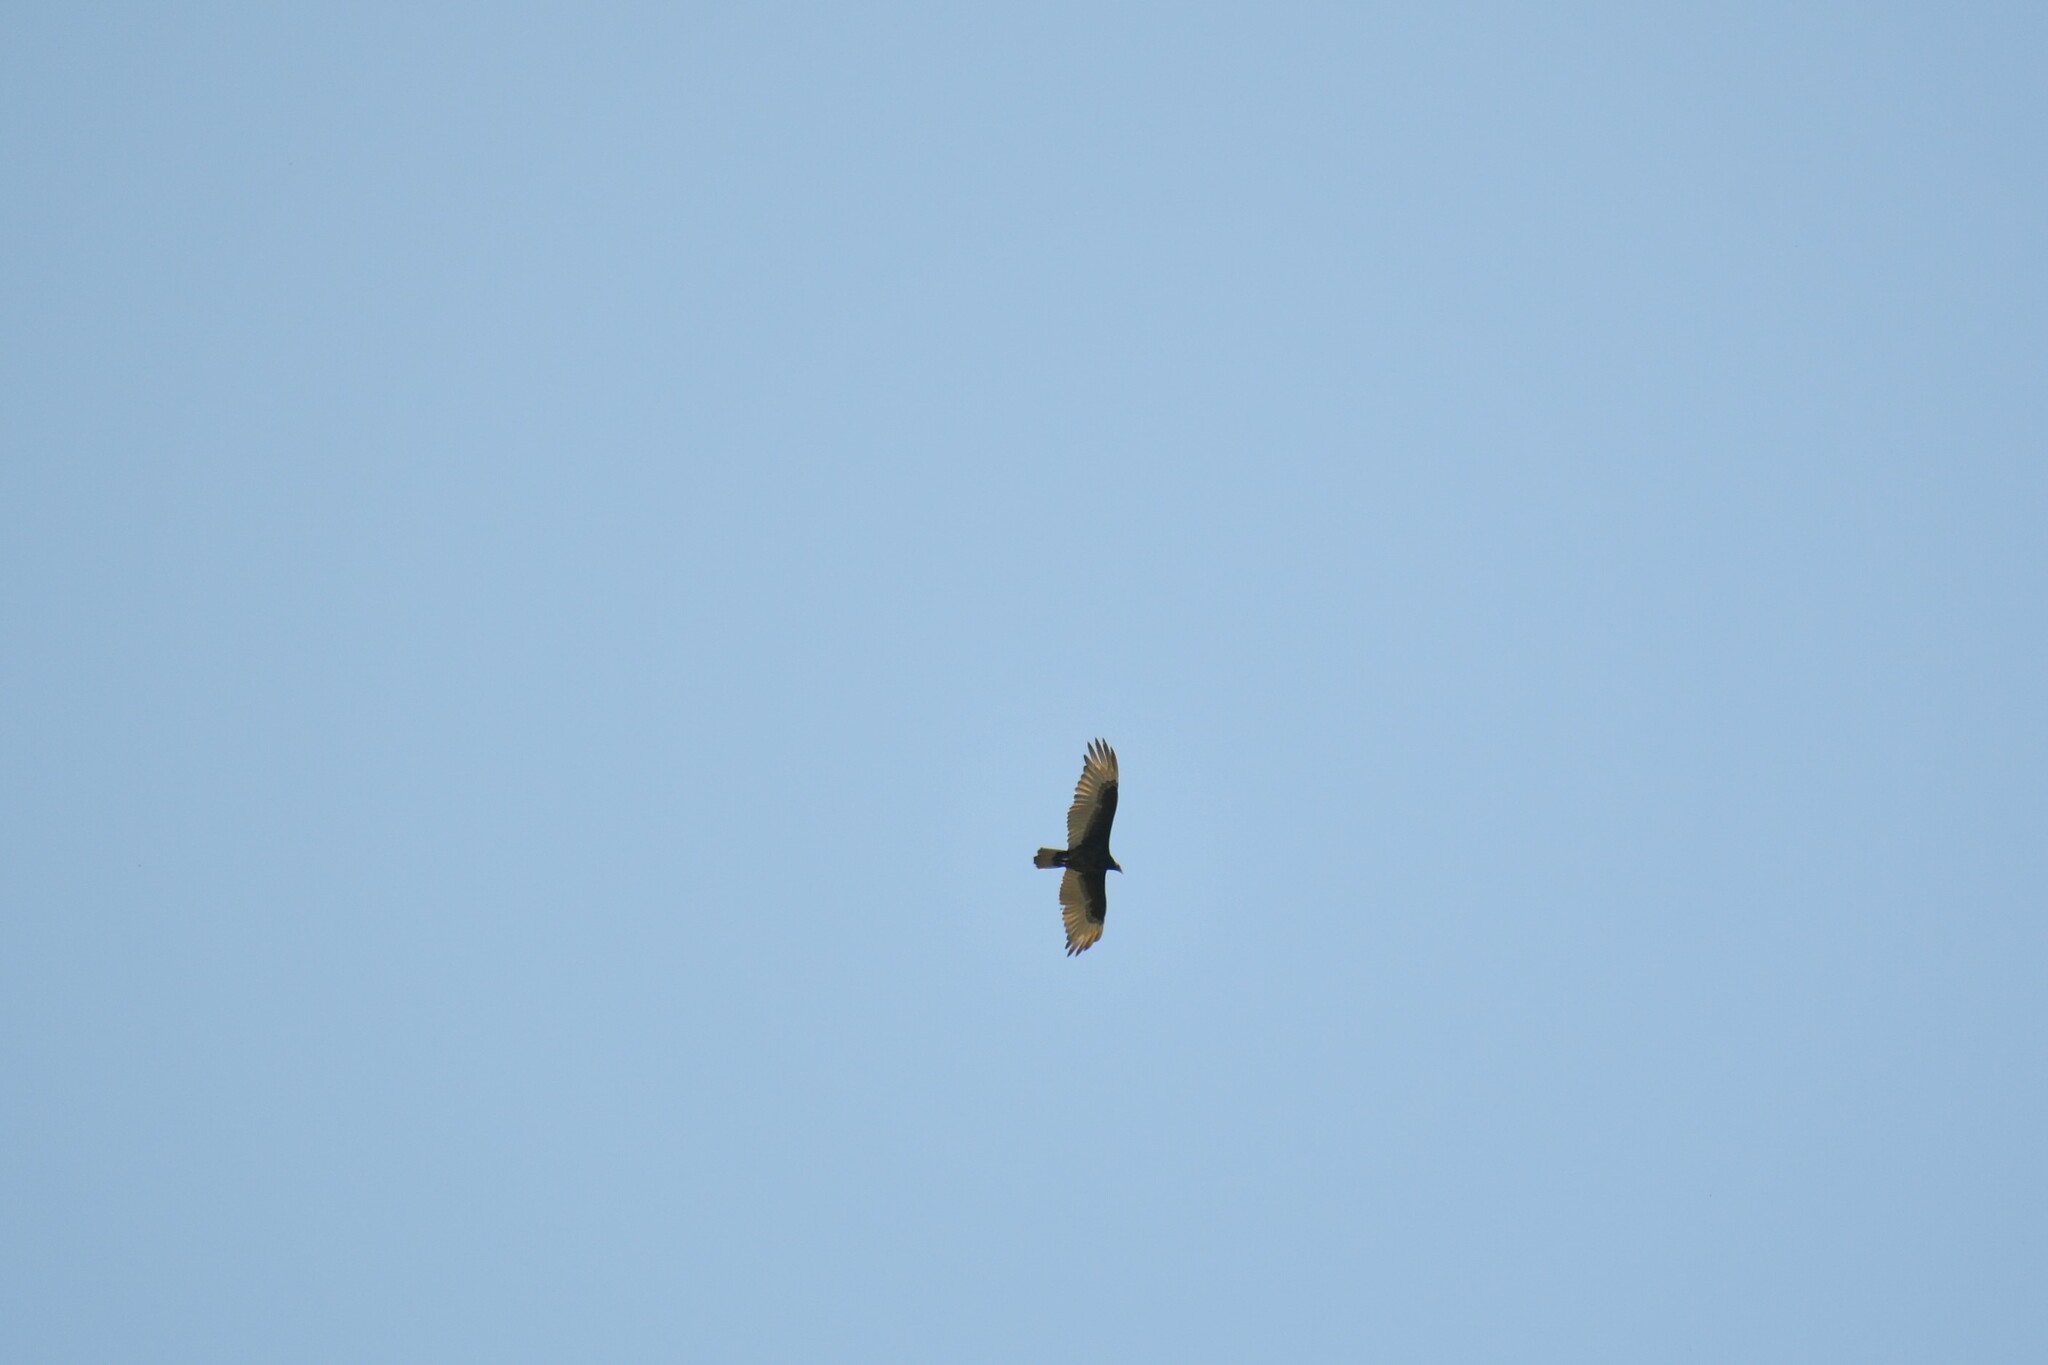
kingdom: Animalia
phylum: Chordata
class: Aves
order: Accipitriformes
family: Cathartidae
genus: Cathartes
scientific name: Cathartes aura
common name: Turkey vulture
